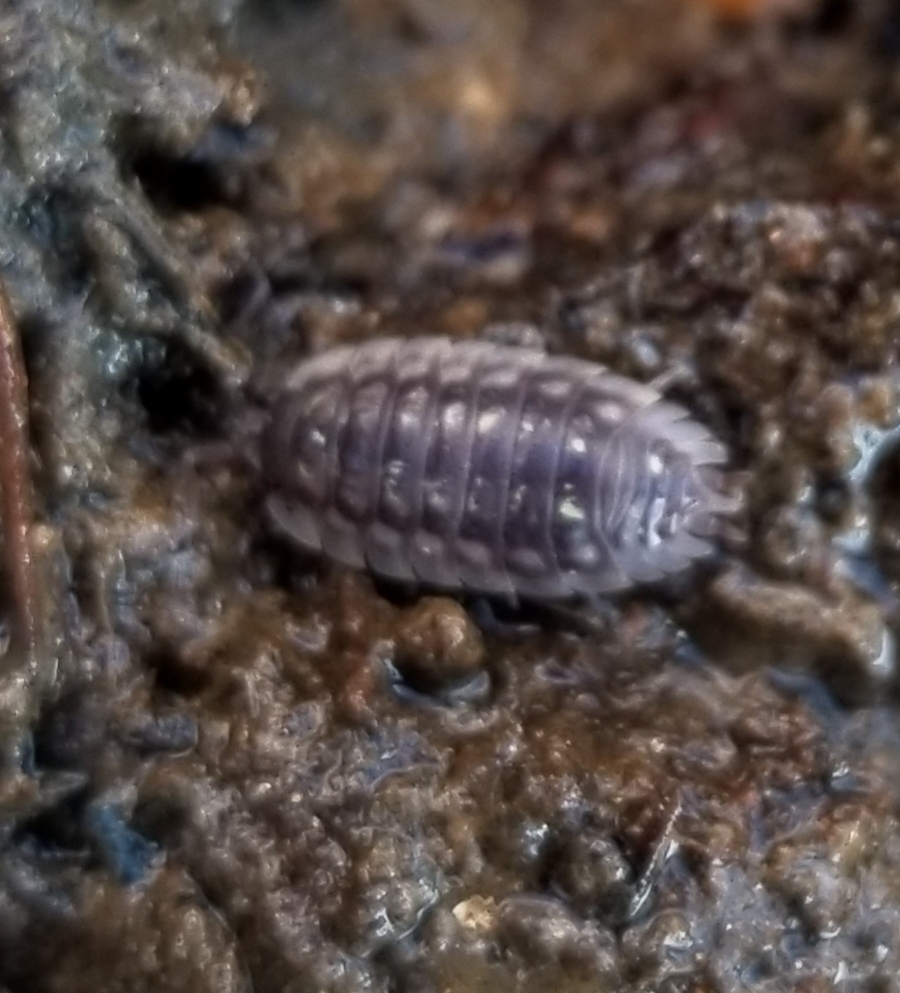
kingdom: Animalia
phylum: Arthropoda
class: Malacostraca
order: Isopoda
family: Oniscidae
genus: Oniscus
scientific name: Oniscus asellus
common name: Common shiny woodlouse
